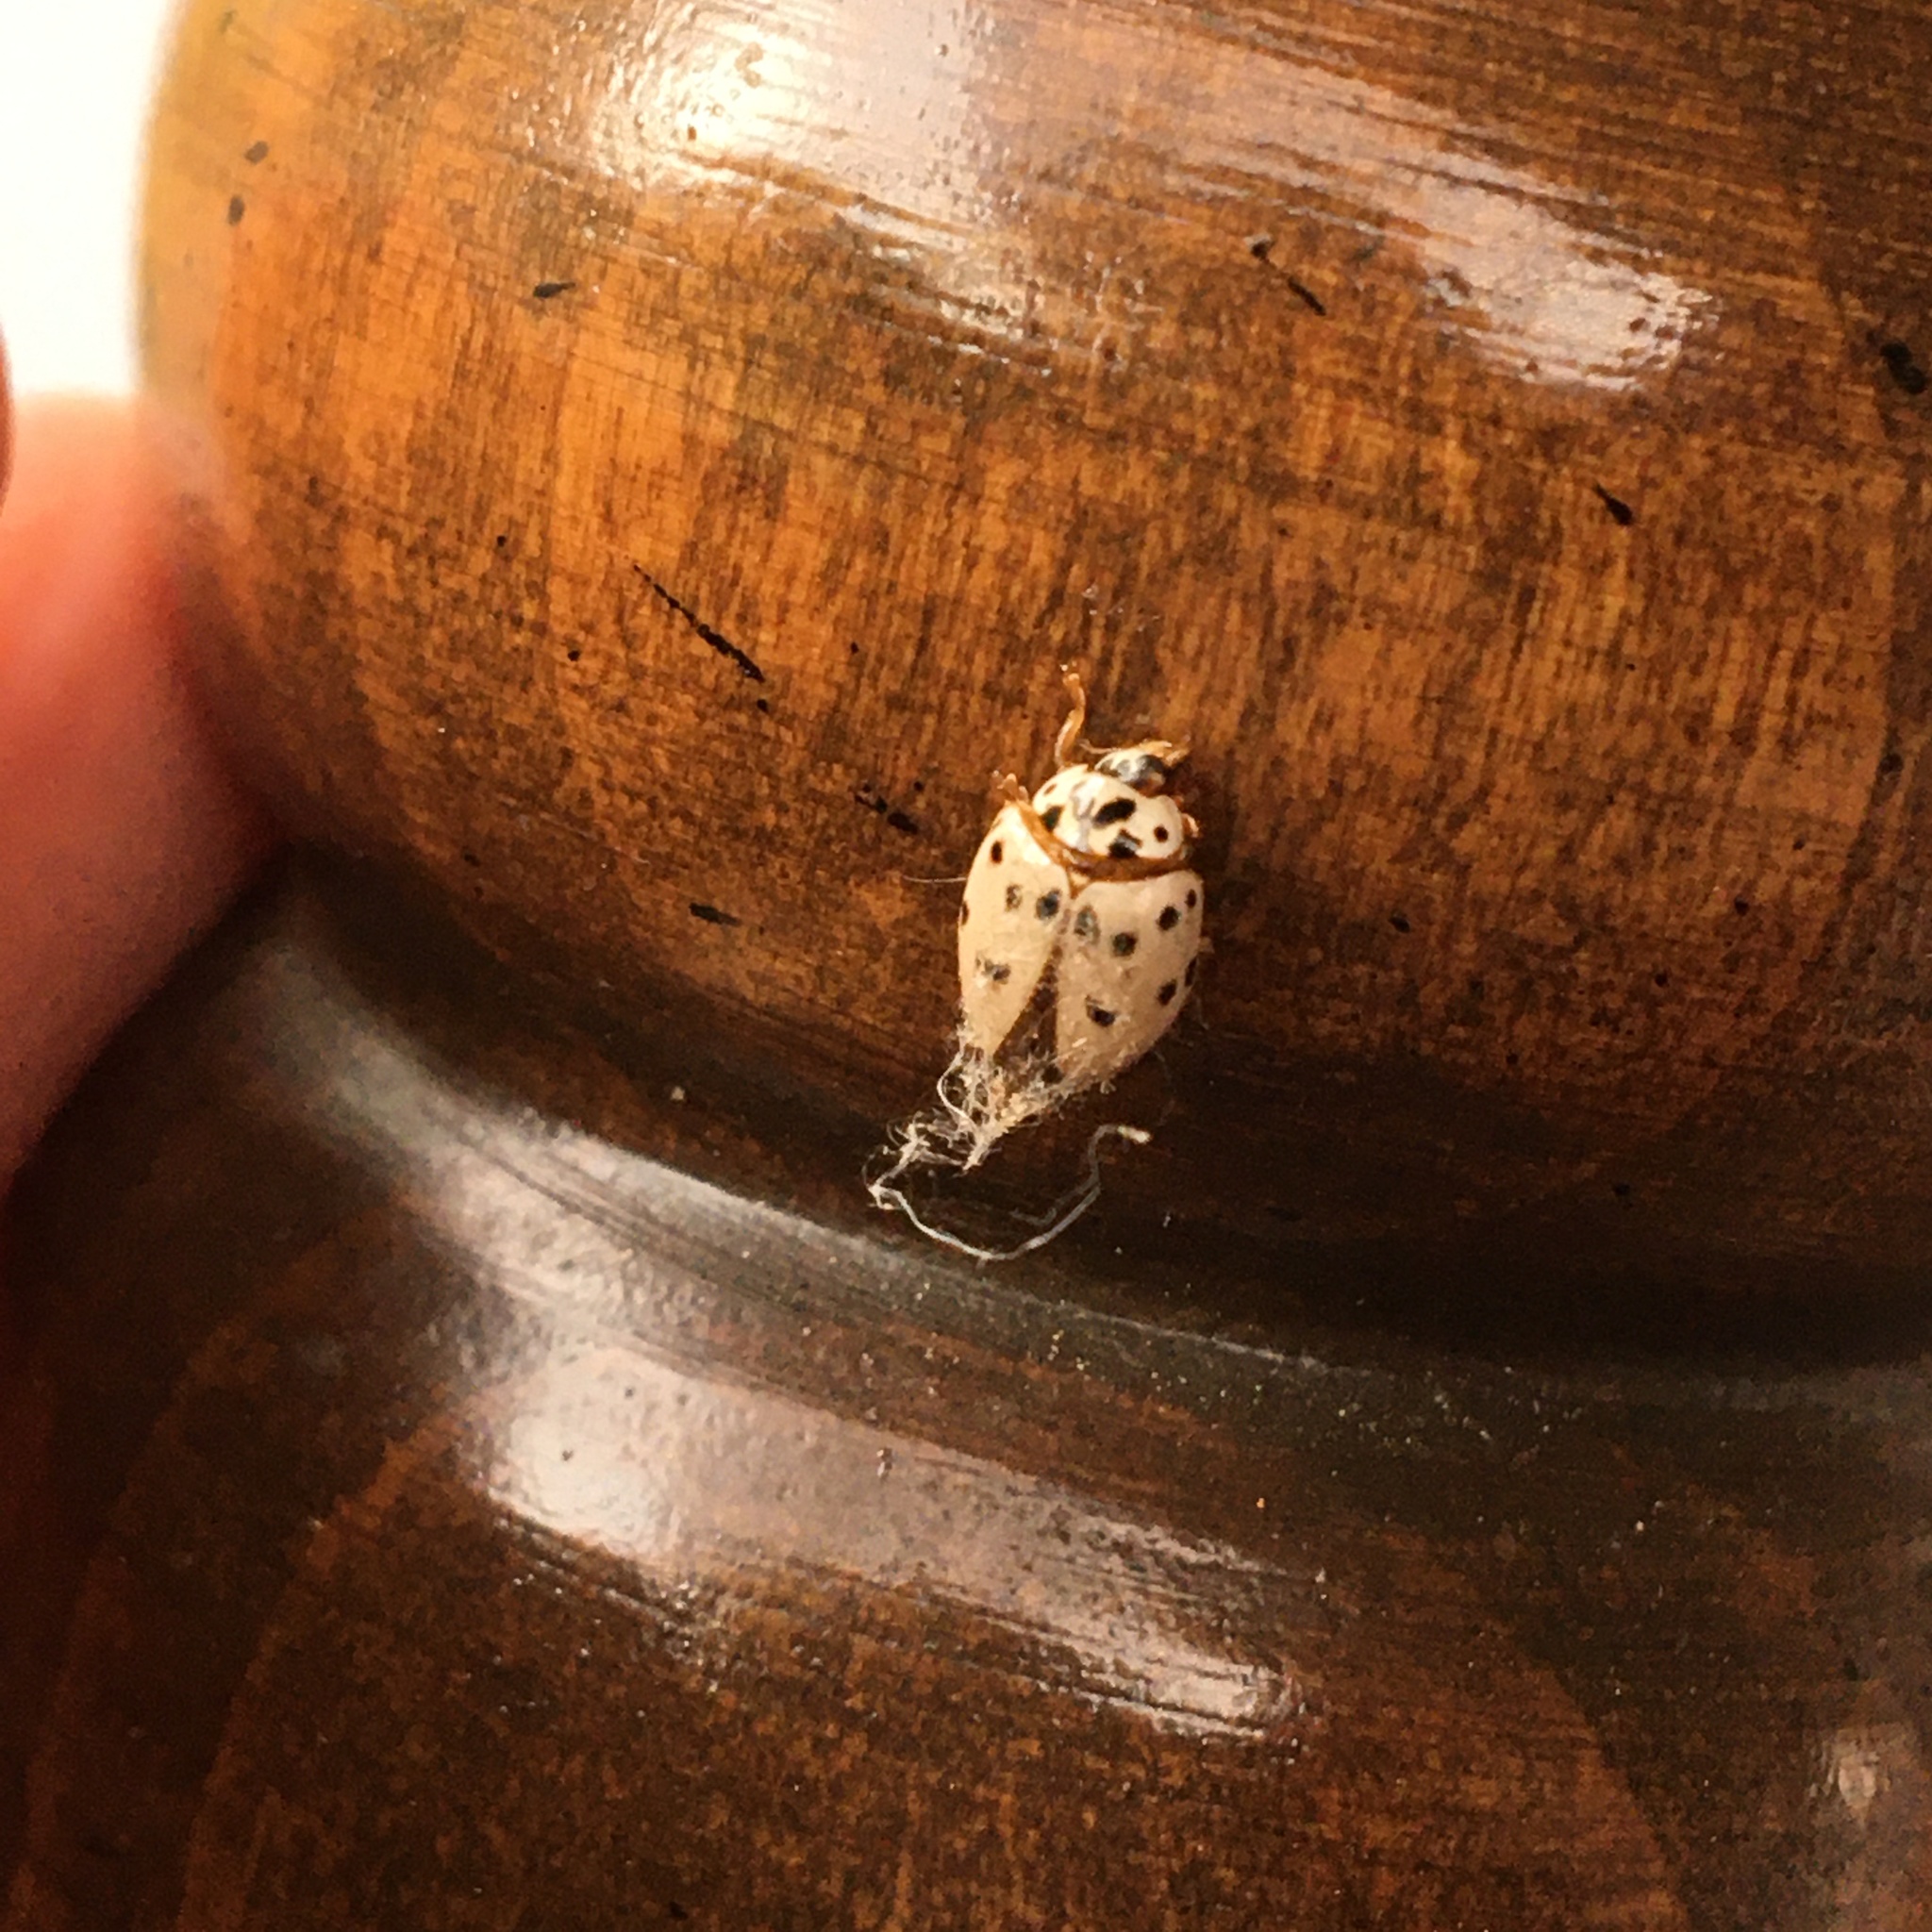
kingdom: Animalia
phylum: Arthropoda
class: Insecta
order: Coleoptera
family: Coccinellidae
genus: Olla
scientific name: Olla v-nigrum
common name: Ashy gray lady beetle
